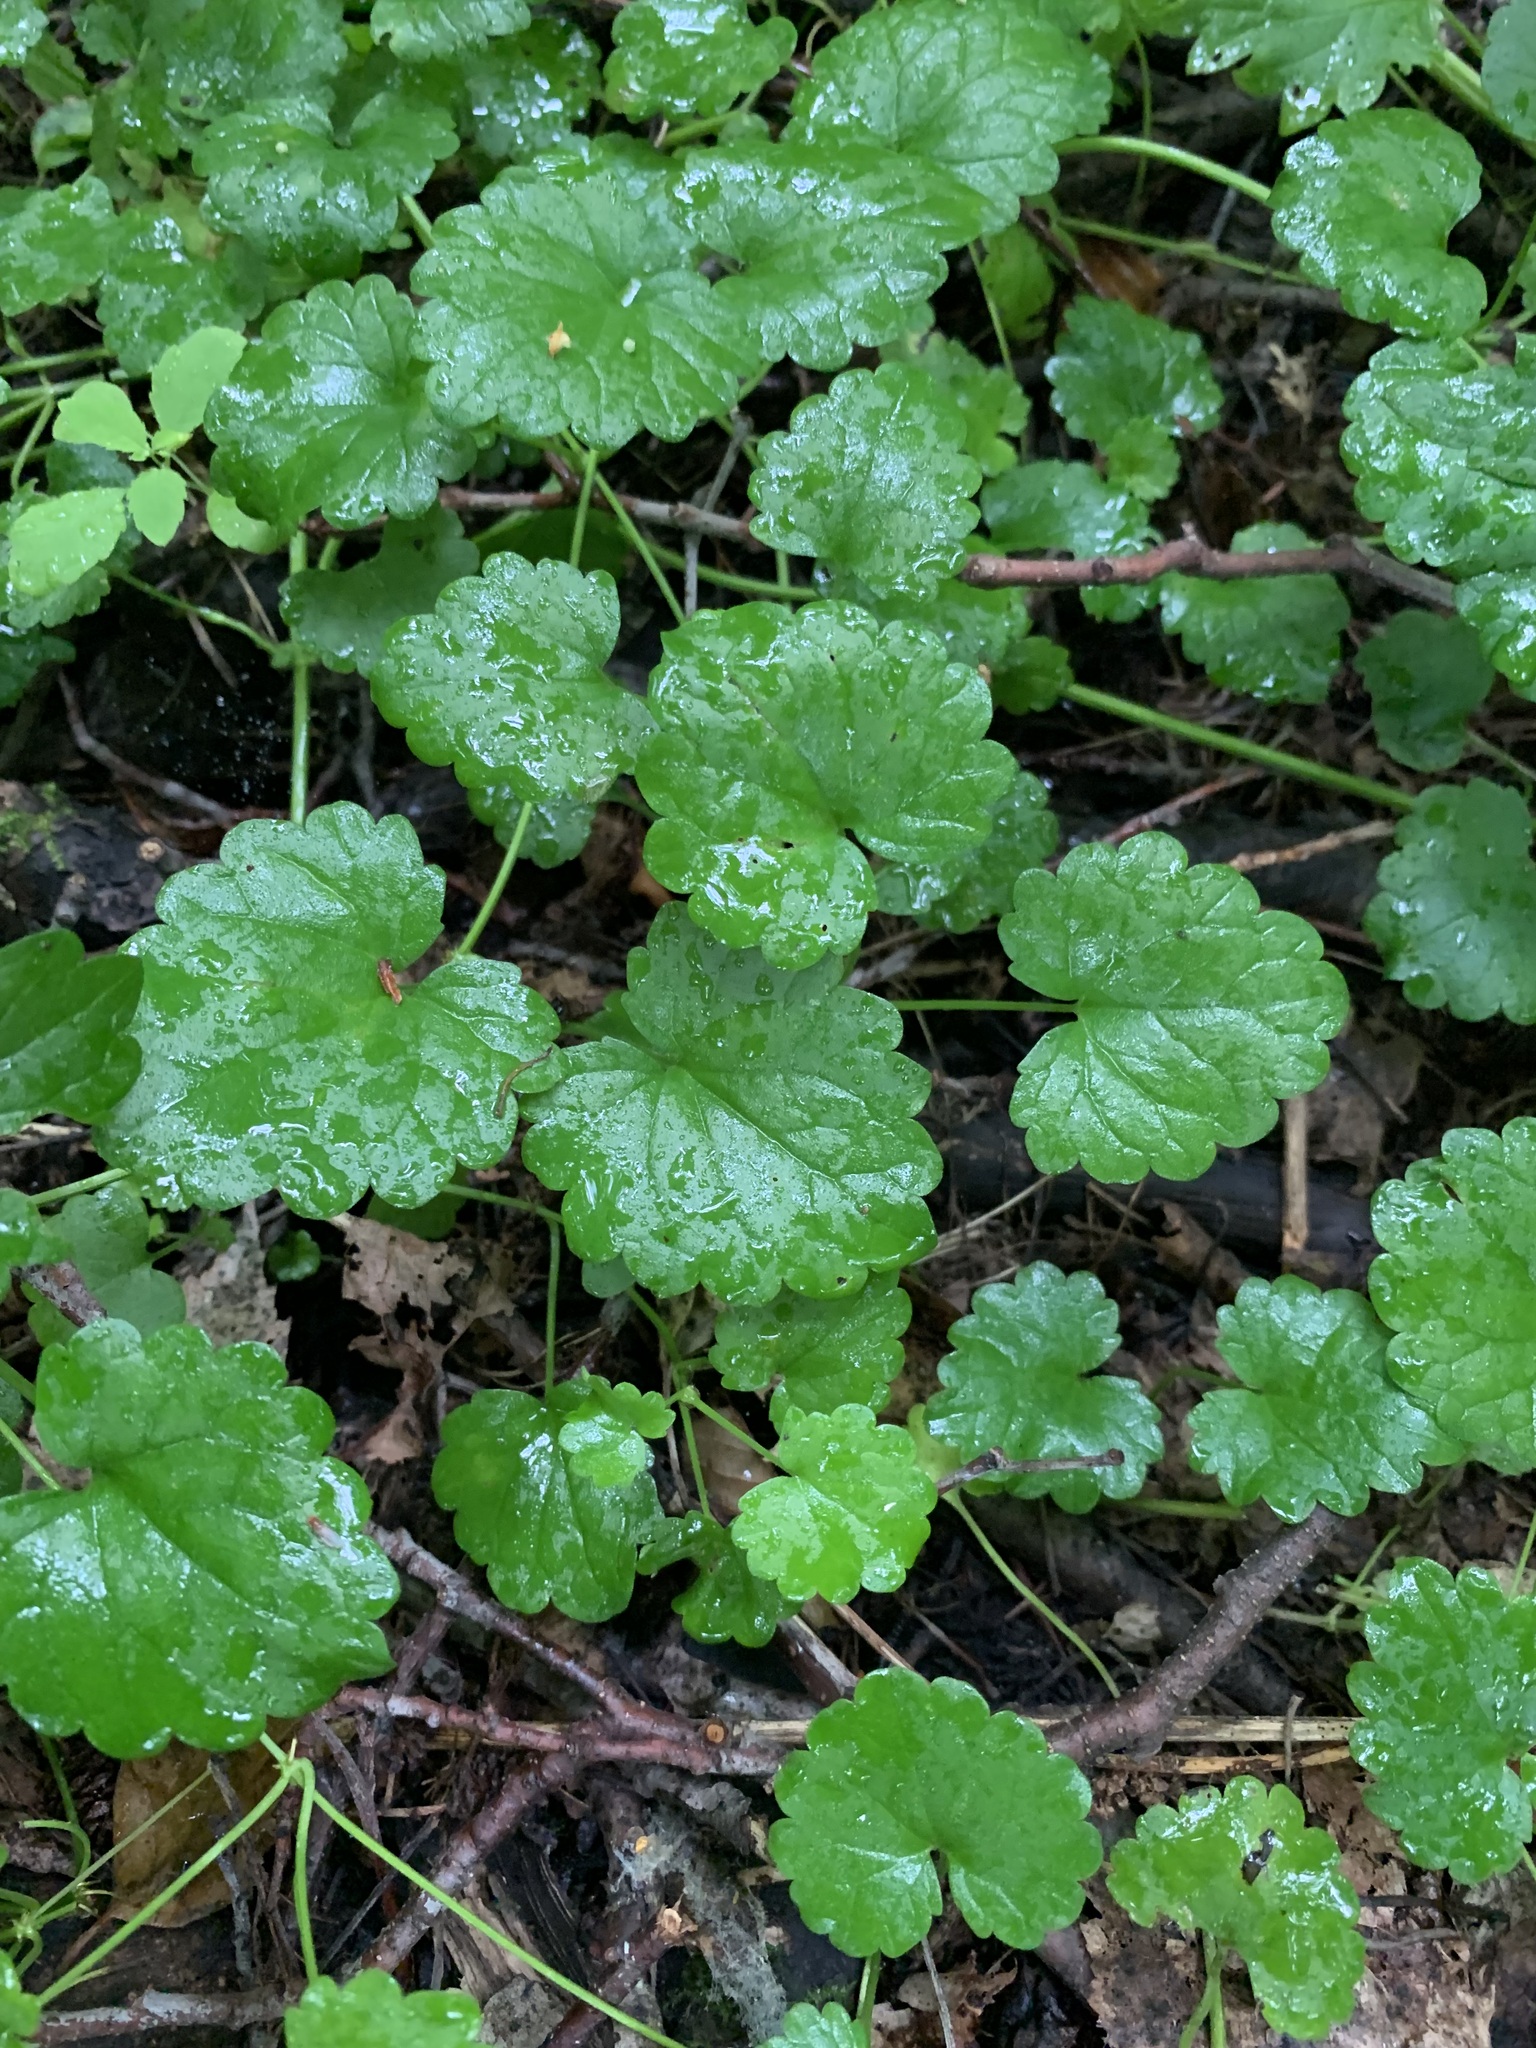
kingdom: Plantae
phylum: Tracheophyta
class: Magnoliopsida
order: Lamiales
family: Lamiaceae
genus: Glechoma
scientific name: Glechoma hederacea
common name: Ground ivy
